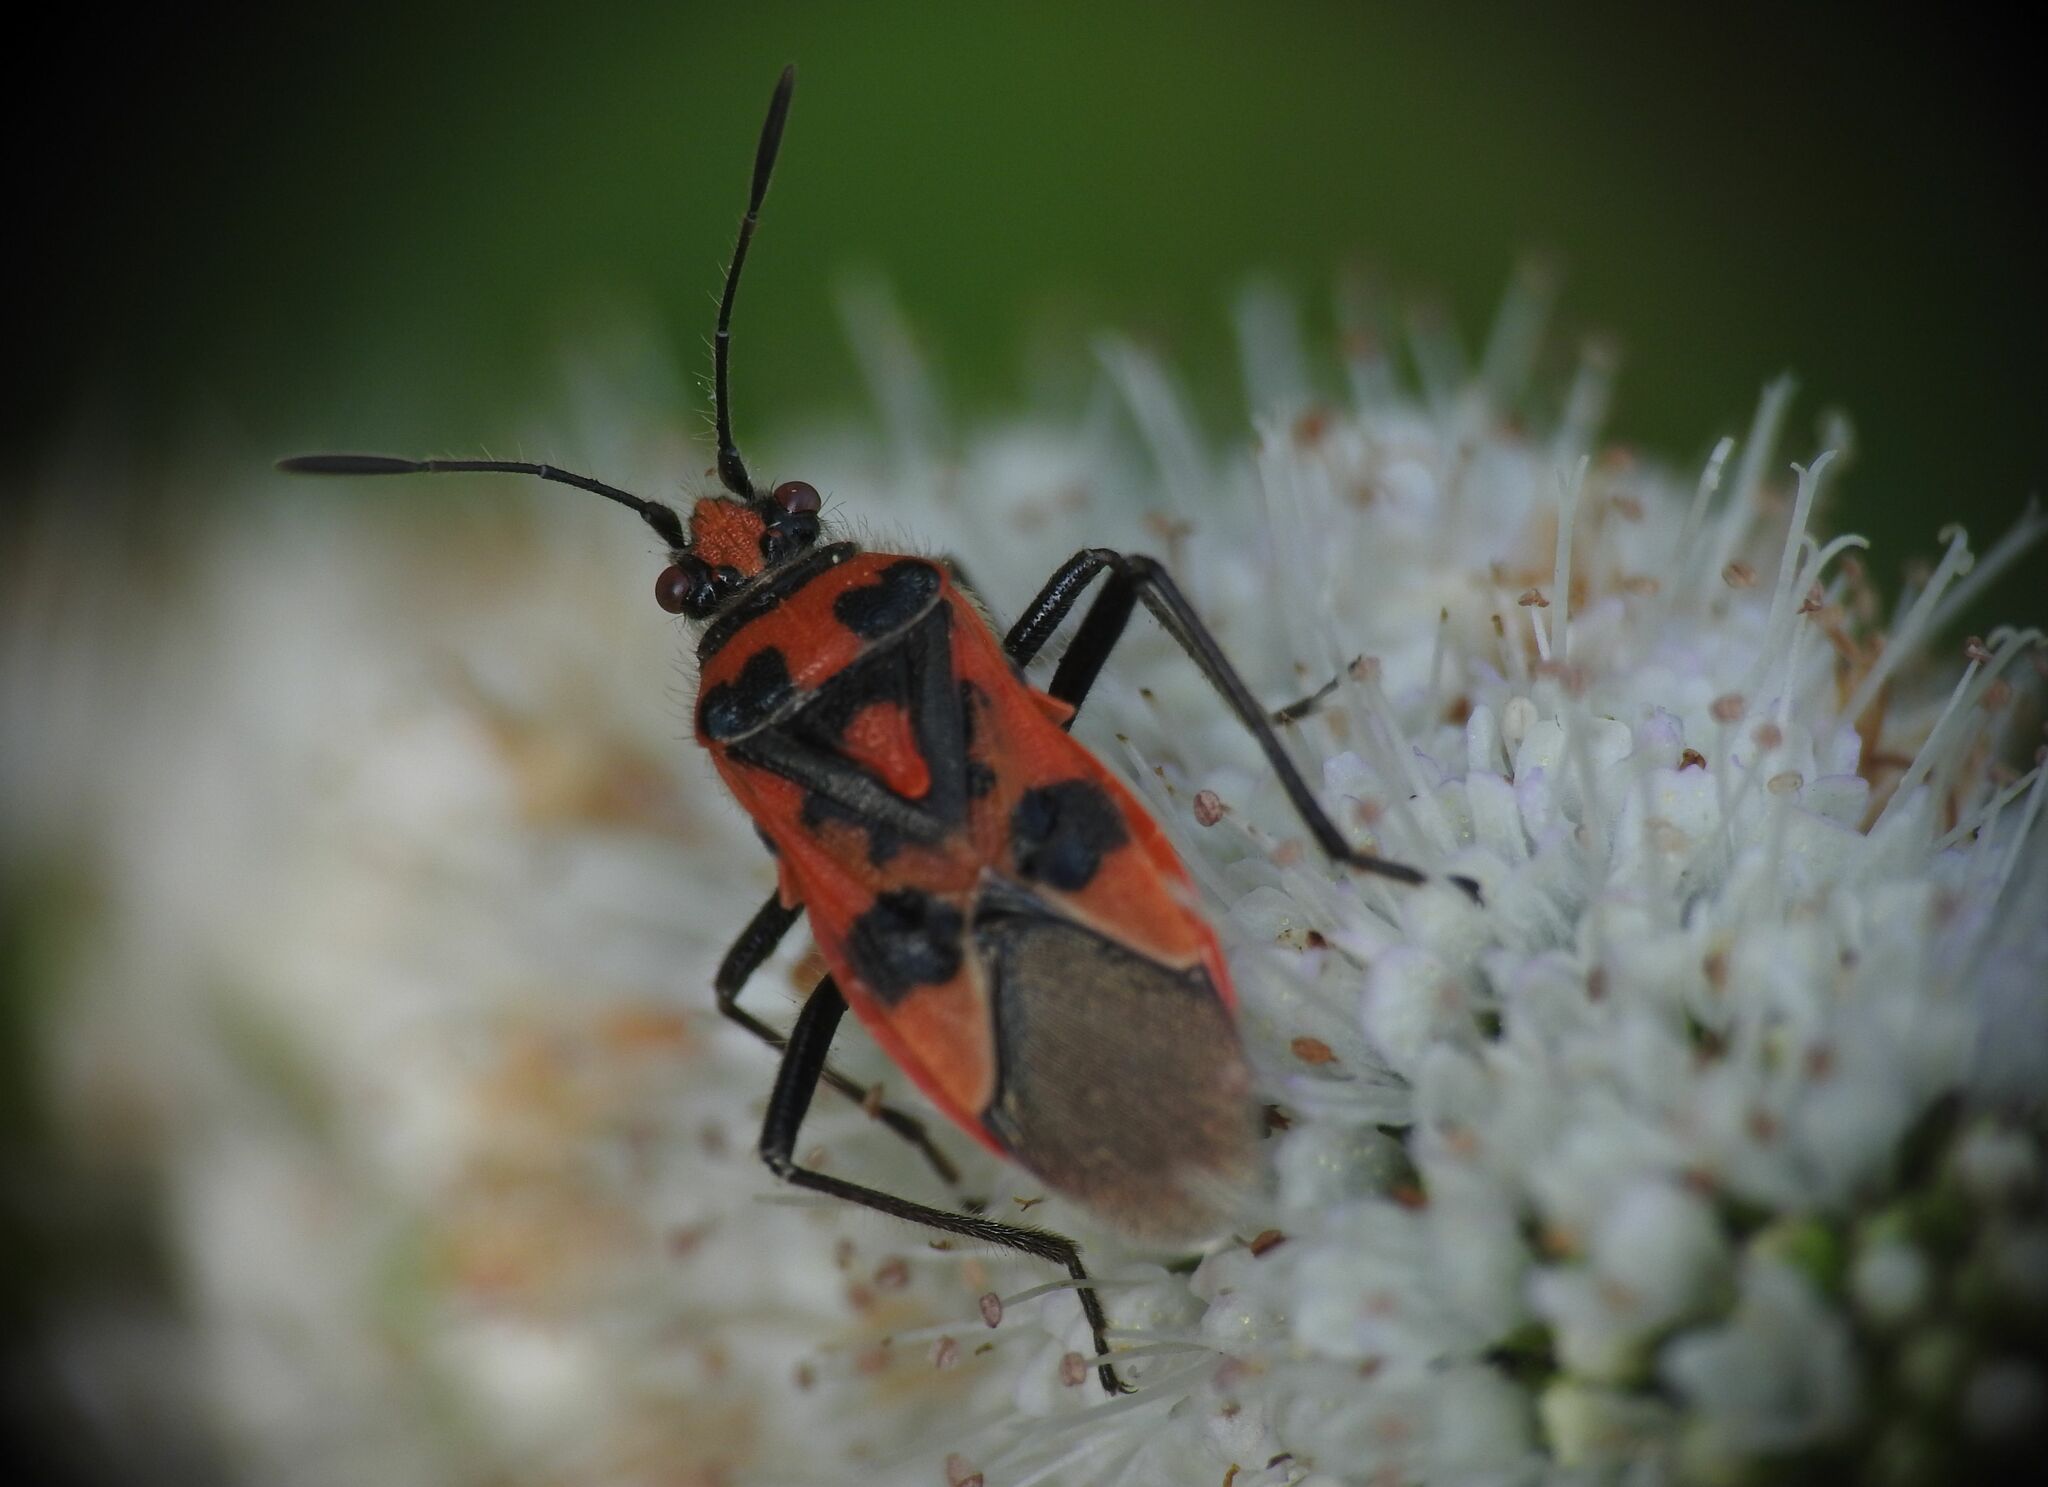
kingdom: Animalia
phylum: Arthropoda
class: Insecta
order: Hemiptera
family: Rhopalidae
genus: Corizus
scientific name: Corizus hyoscyami
